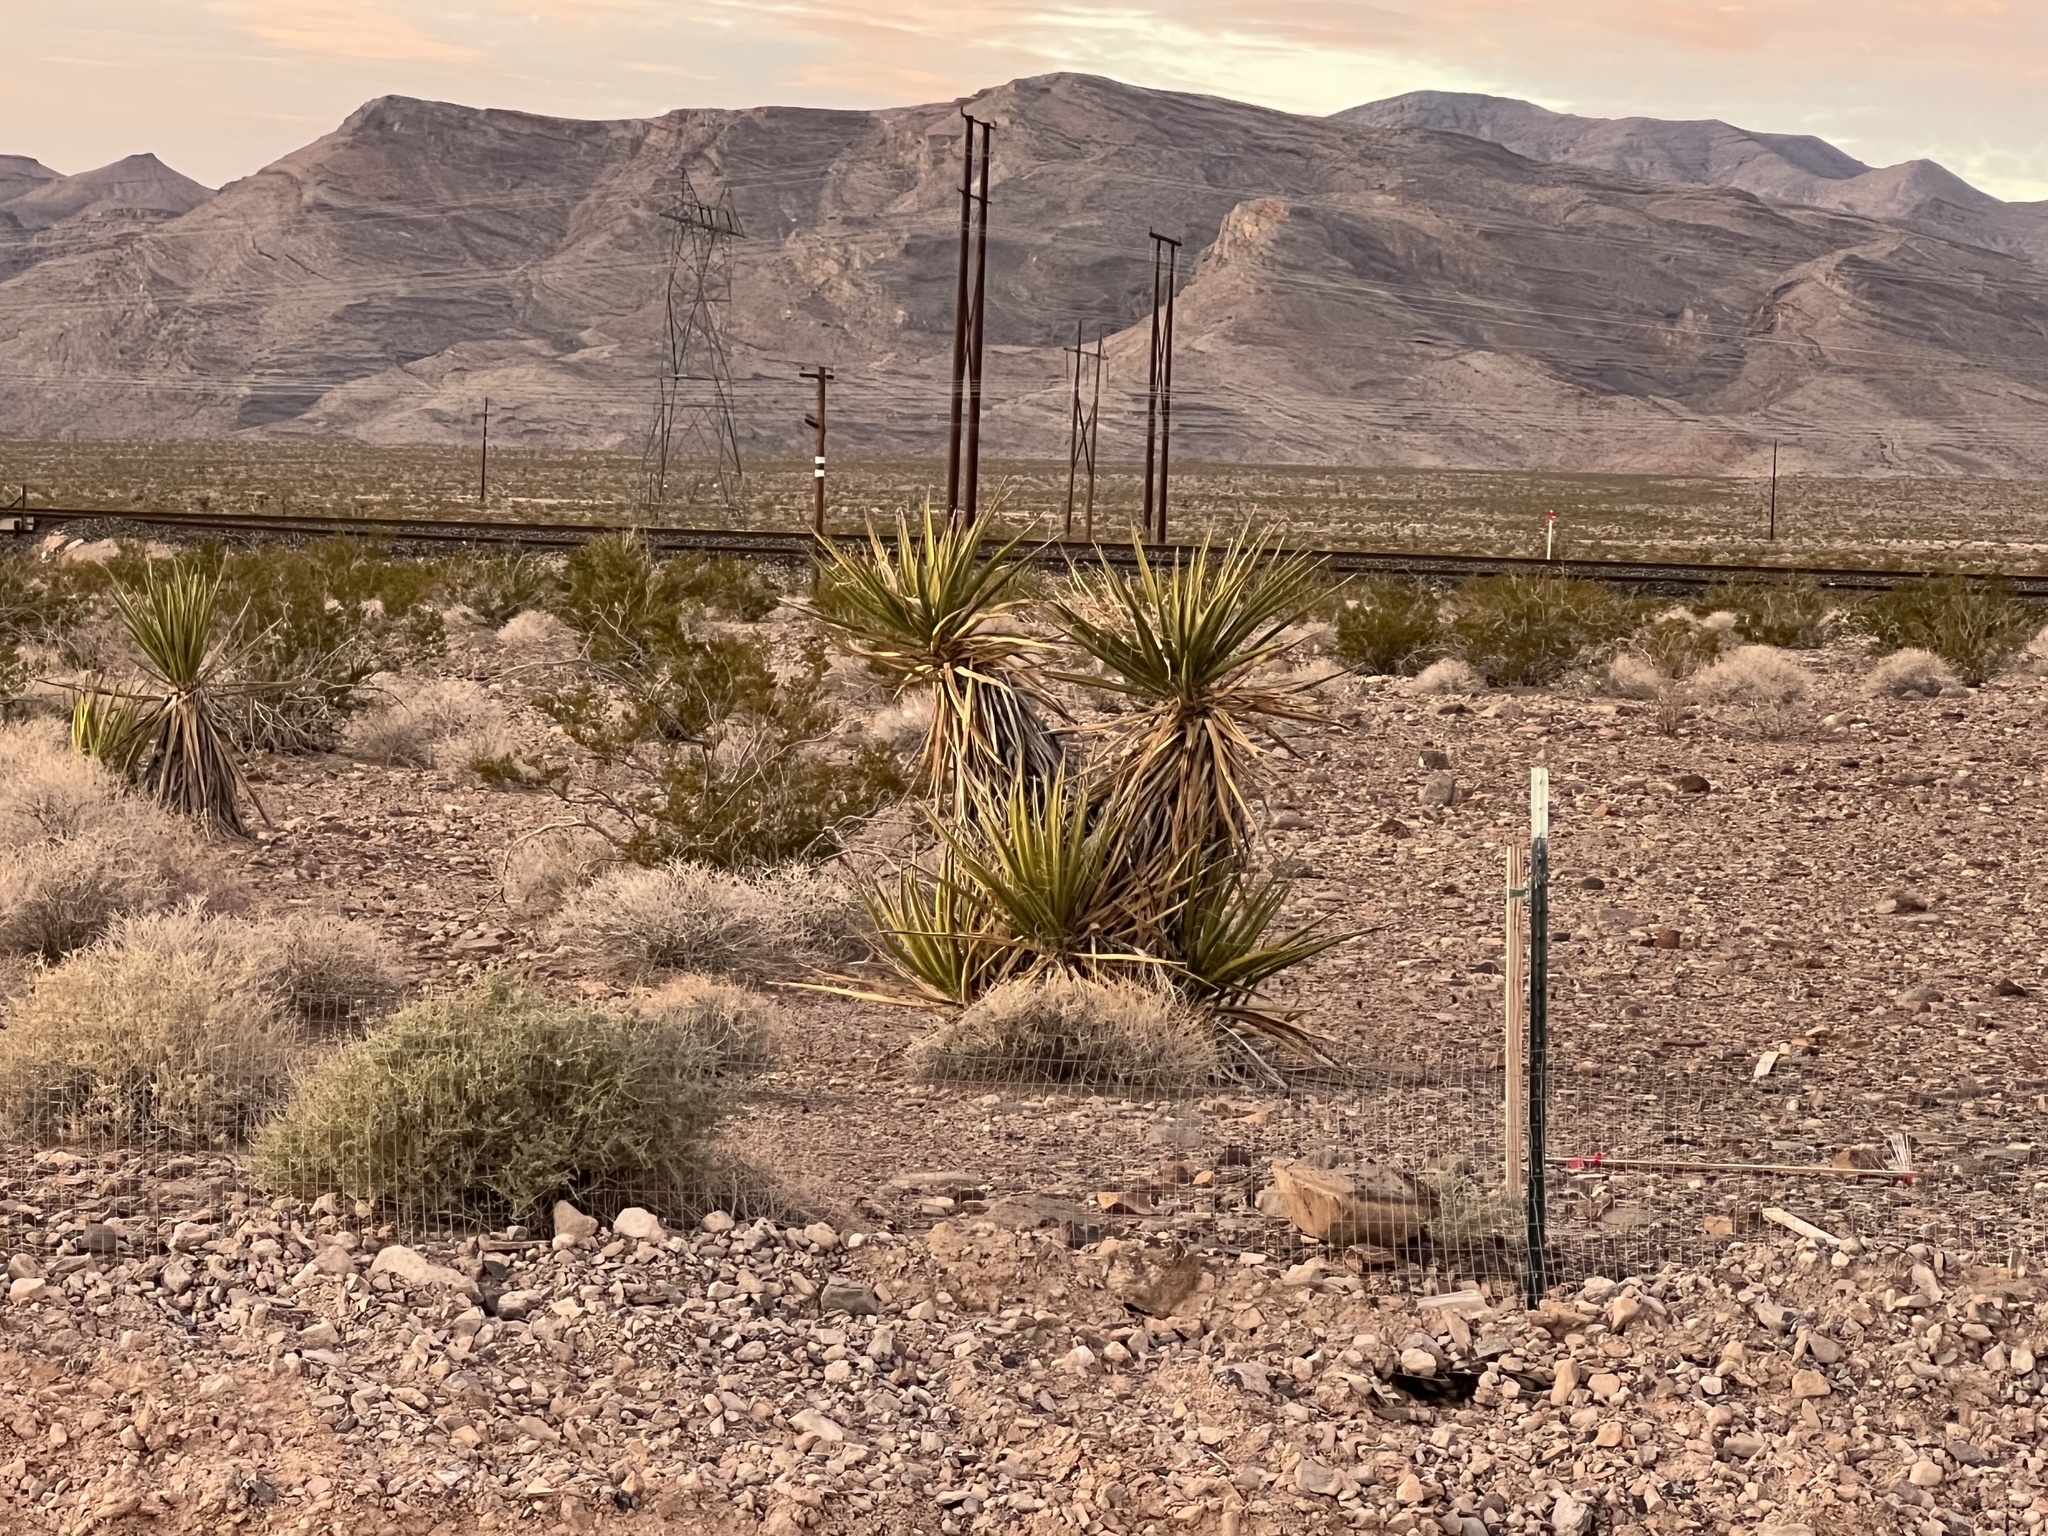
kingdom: Plantae
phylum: Tracheophyta
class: Liliopsida
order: Asparagales
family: Asparagaceae
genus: Yucca
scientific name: Yucca schidigera
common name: Mojave yucca
